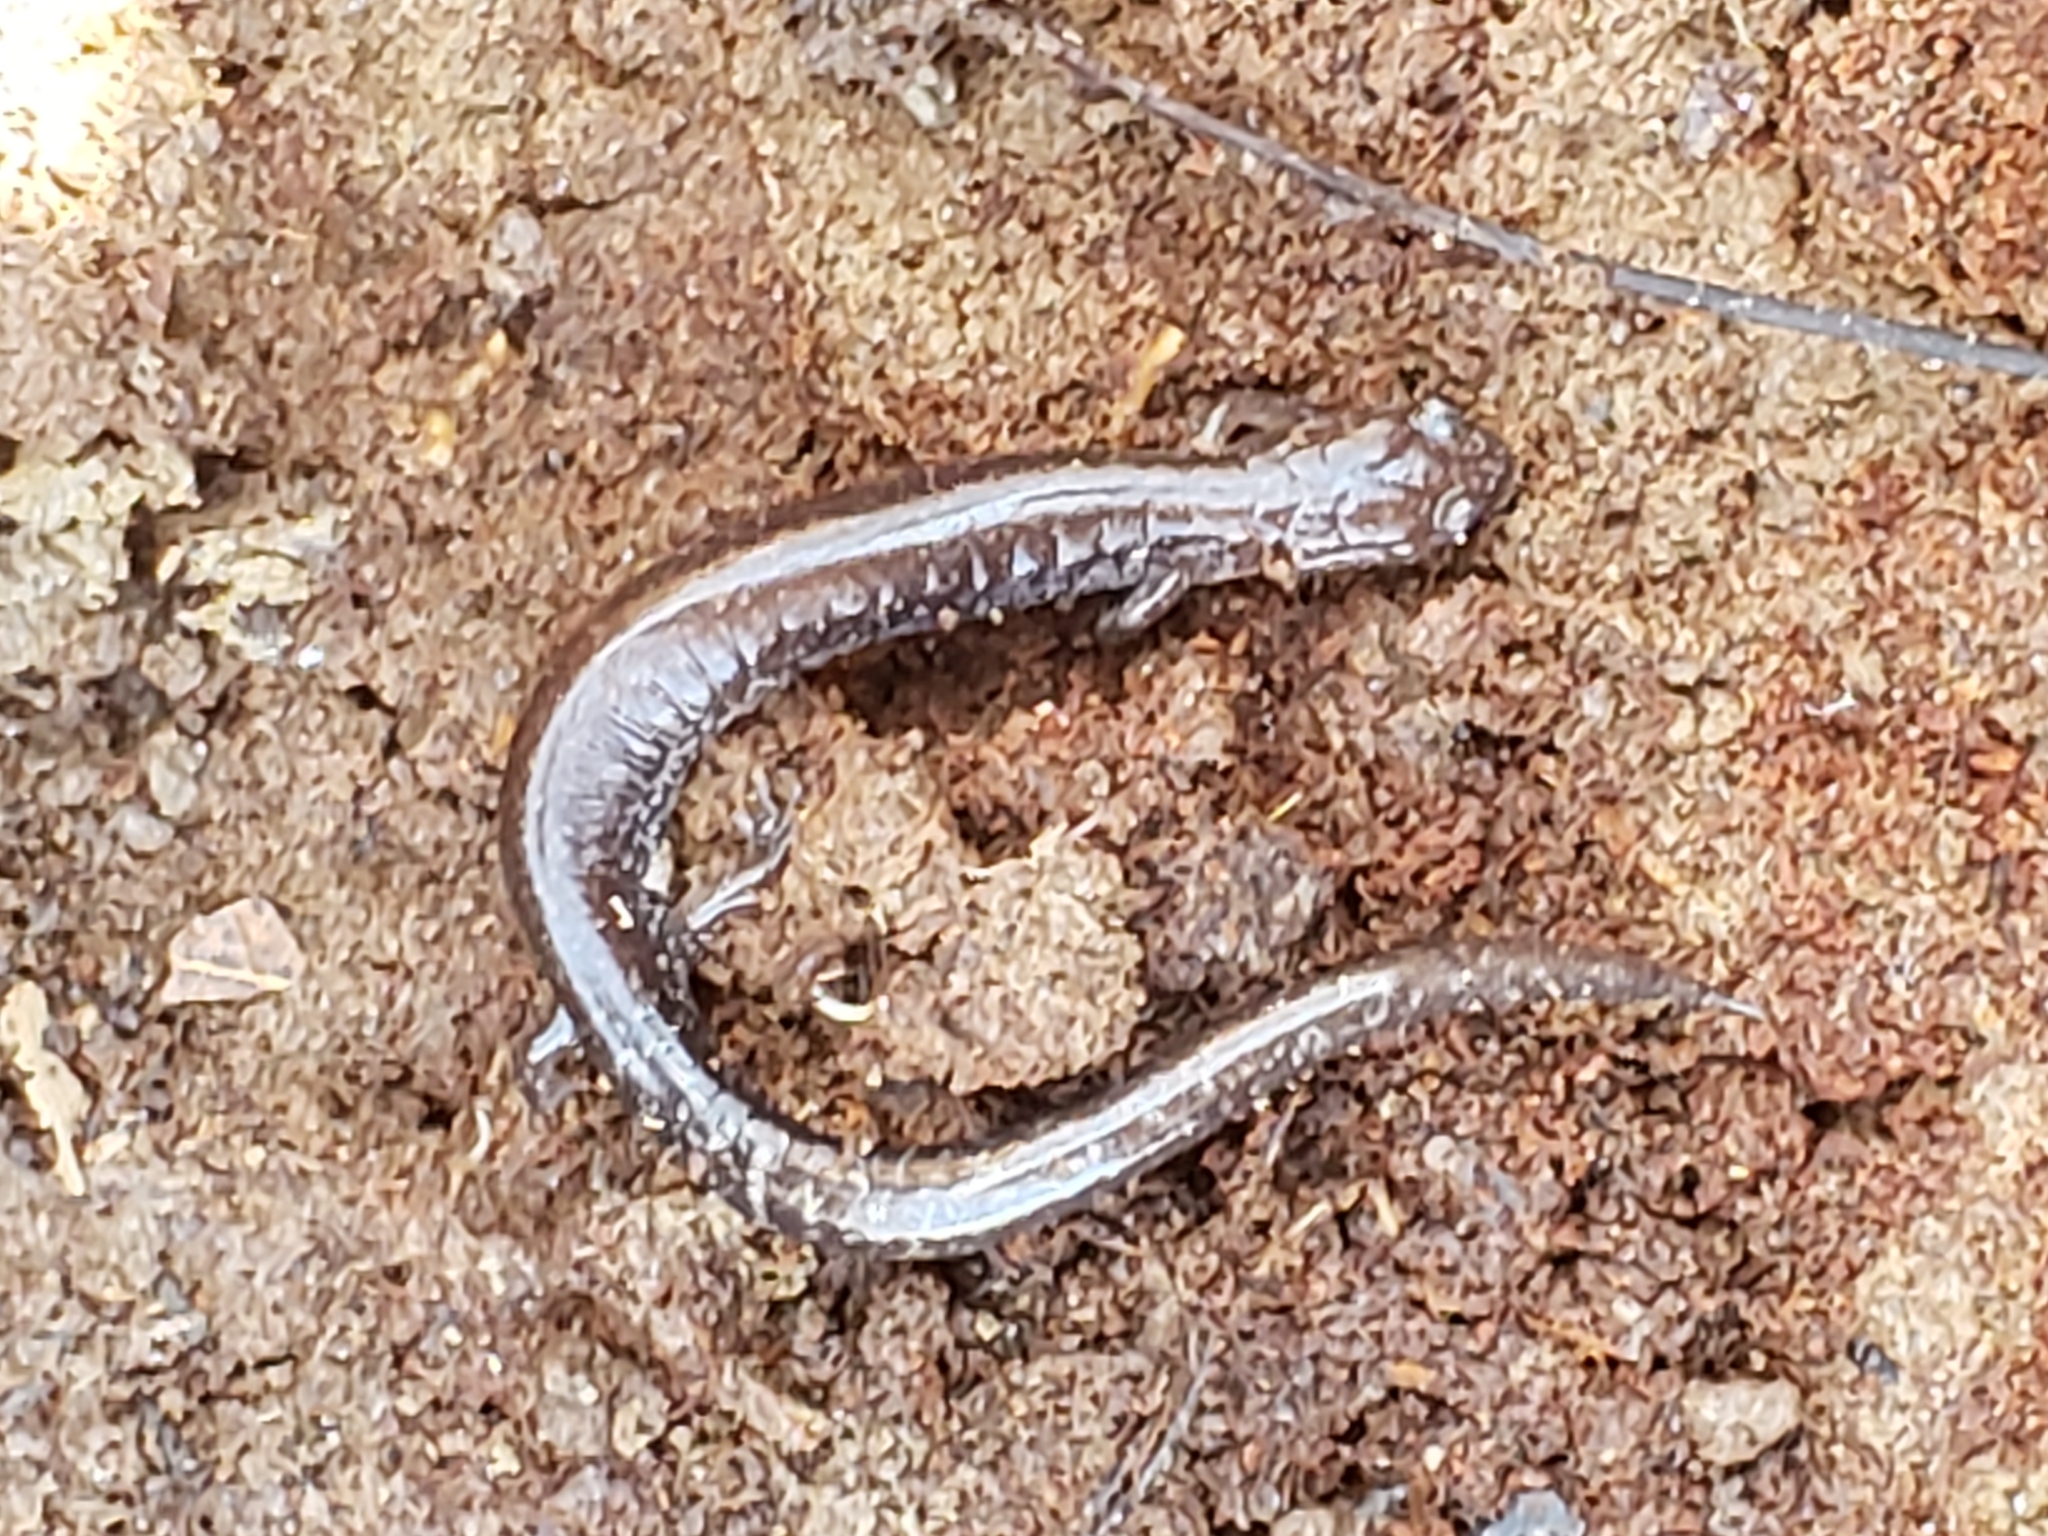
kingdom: Animalia
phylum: Chordata
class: Amphibia
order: Caudata
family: Plethodontidae
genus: Plethodon
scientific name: Plethodon cinereus
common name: Redback salamander
